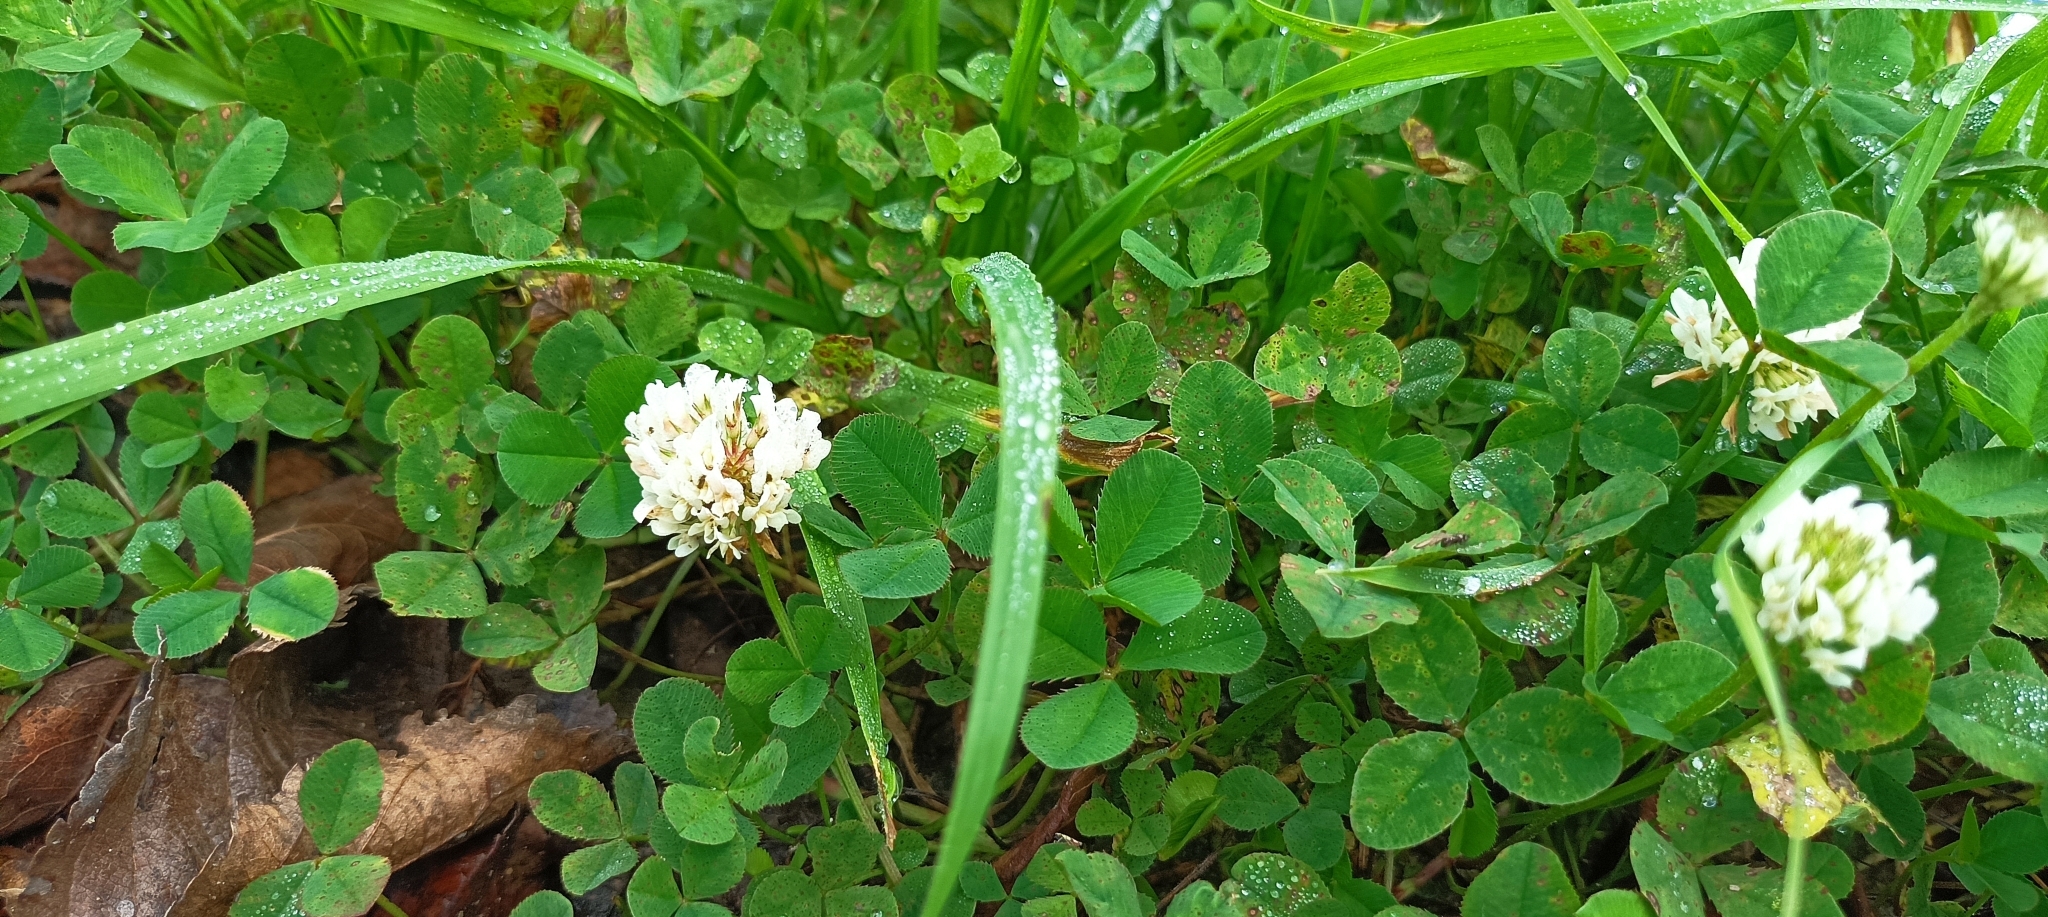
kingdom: Plantae
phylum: Tracheophyta
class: Magnoliopsida
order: Fabales
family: Fabaceae
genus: Trifolium
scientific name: Trifolium repens
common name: White clover
